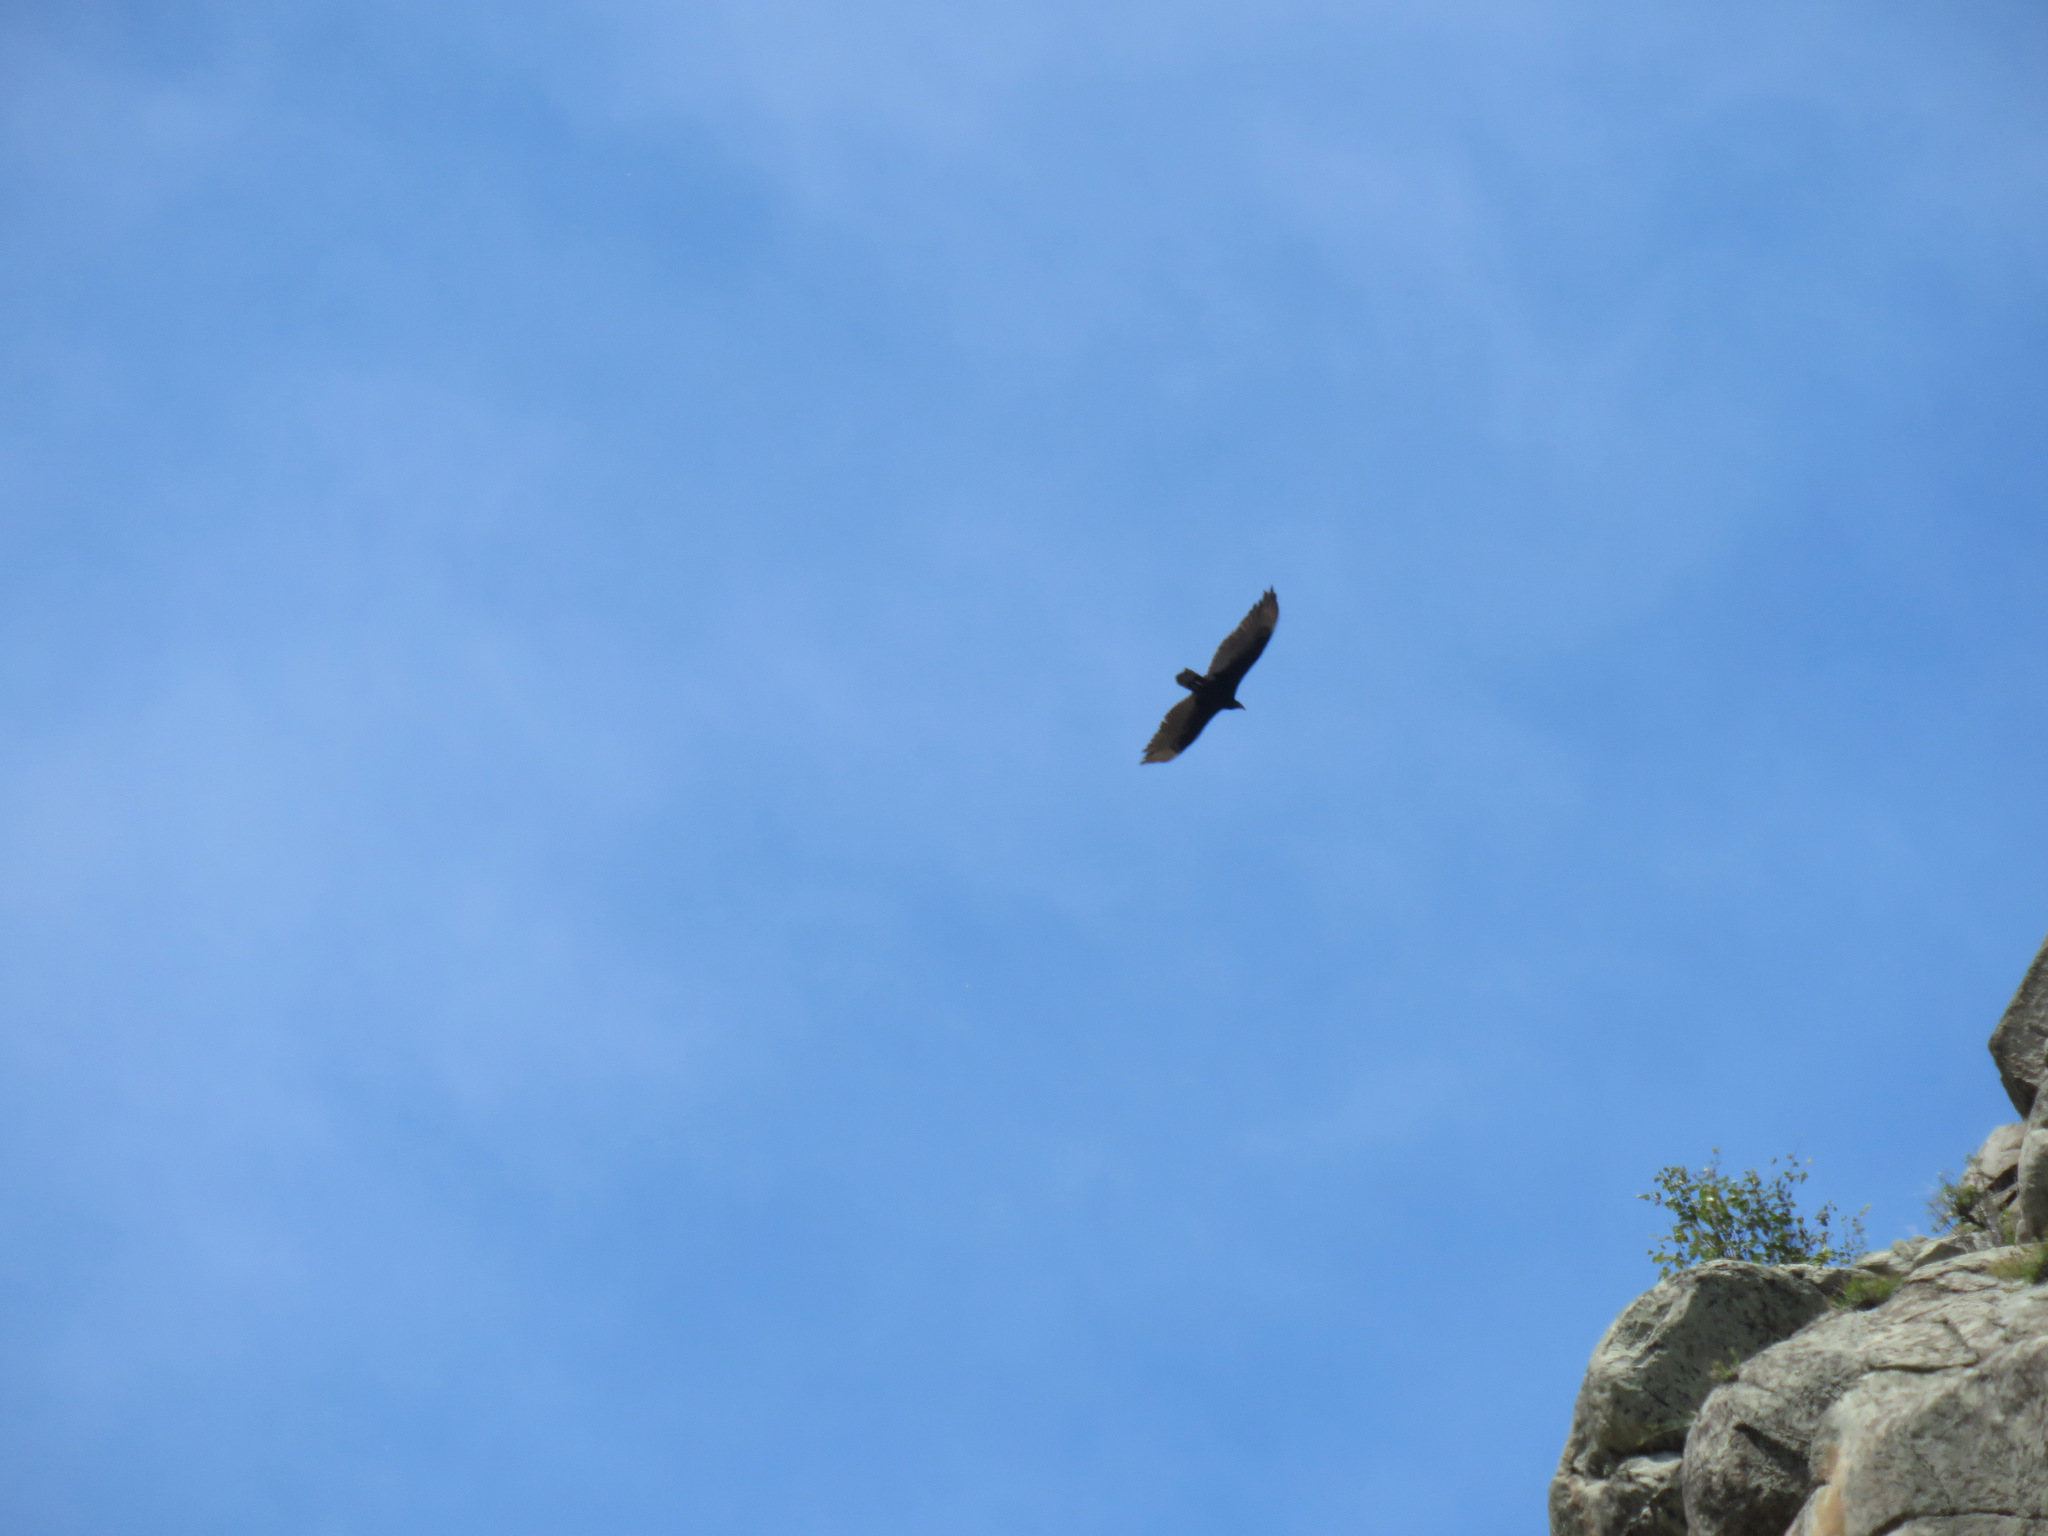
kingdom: Animalia
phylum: Chordata
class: Aves
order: Accipitriformes
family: Cathartidae
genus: Cathartes
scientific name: Cathartes aura
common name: Turkey vulture
